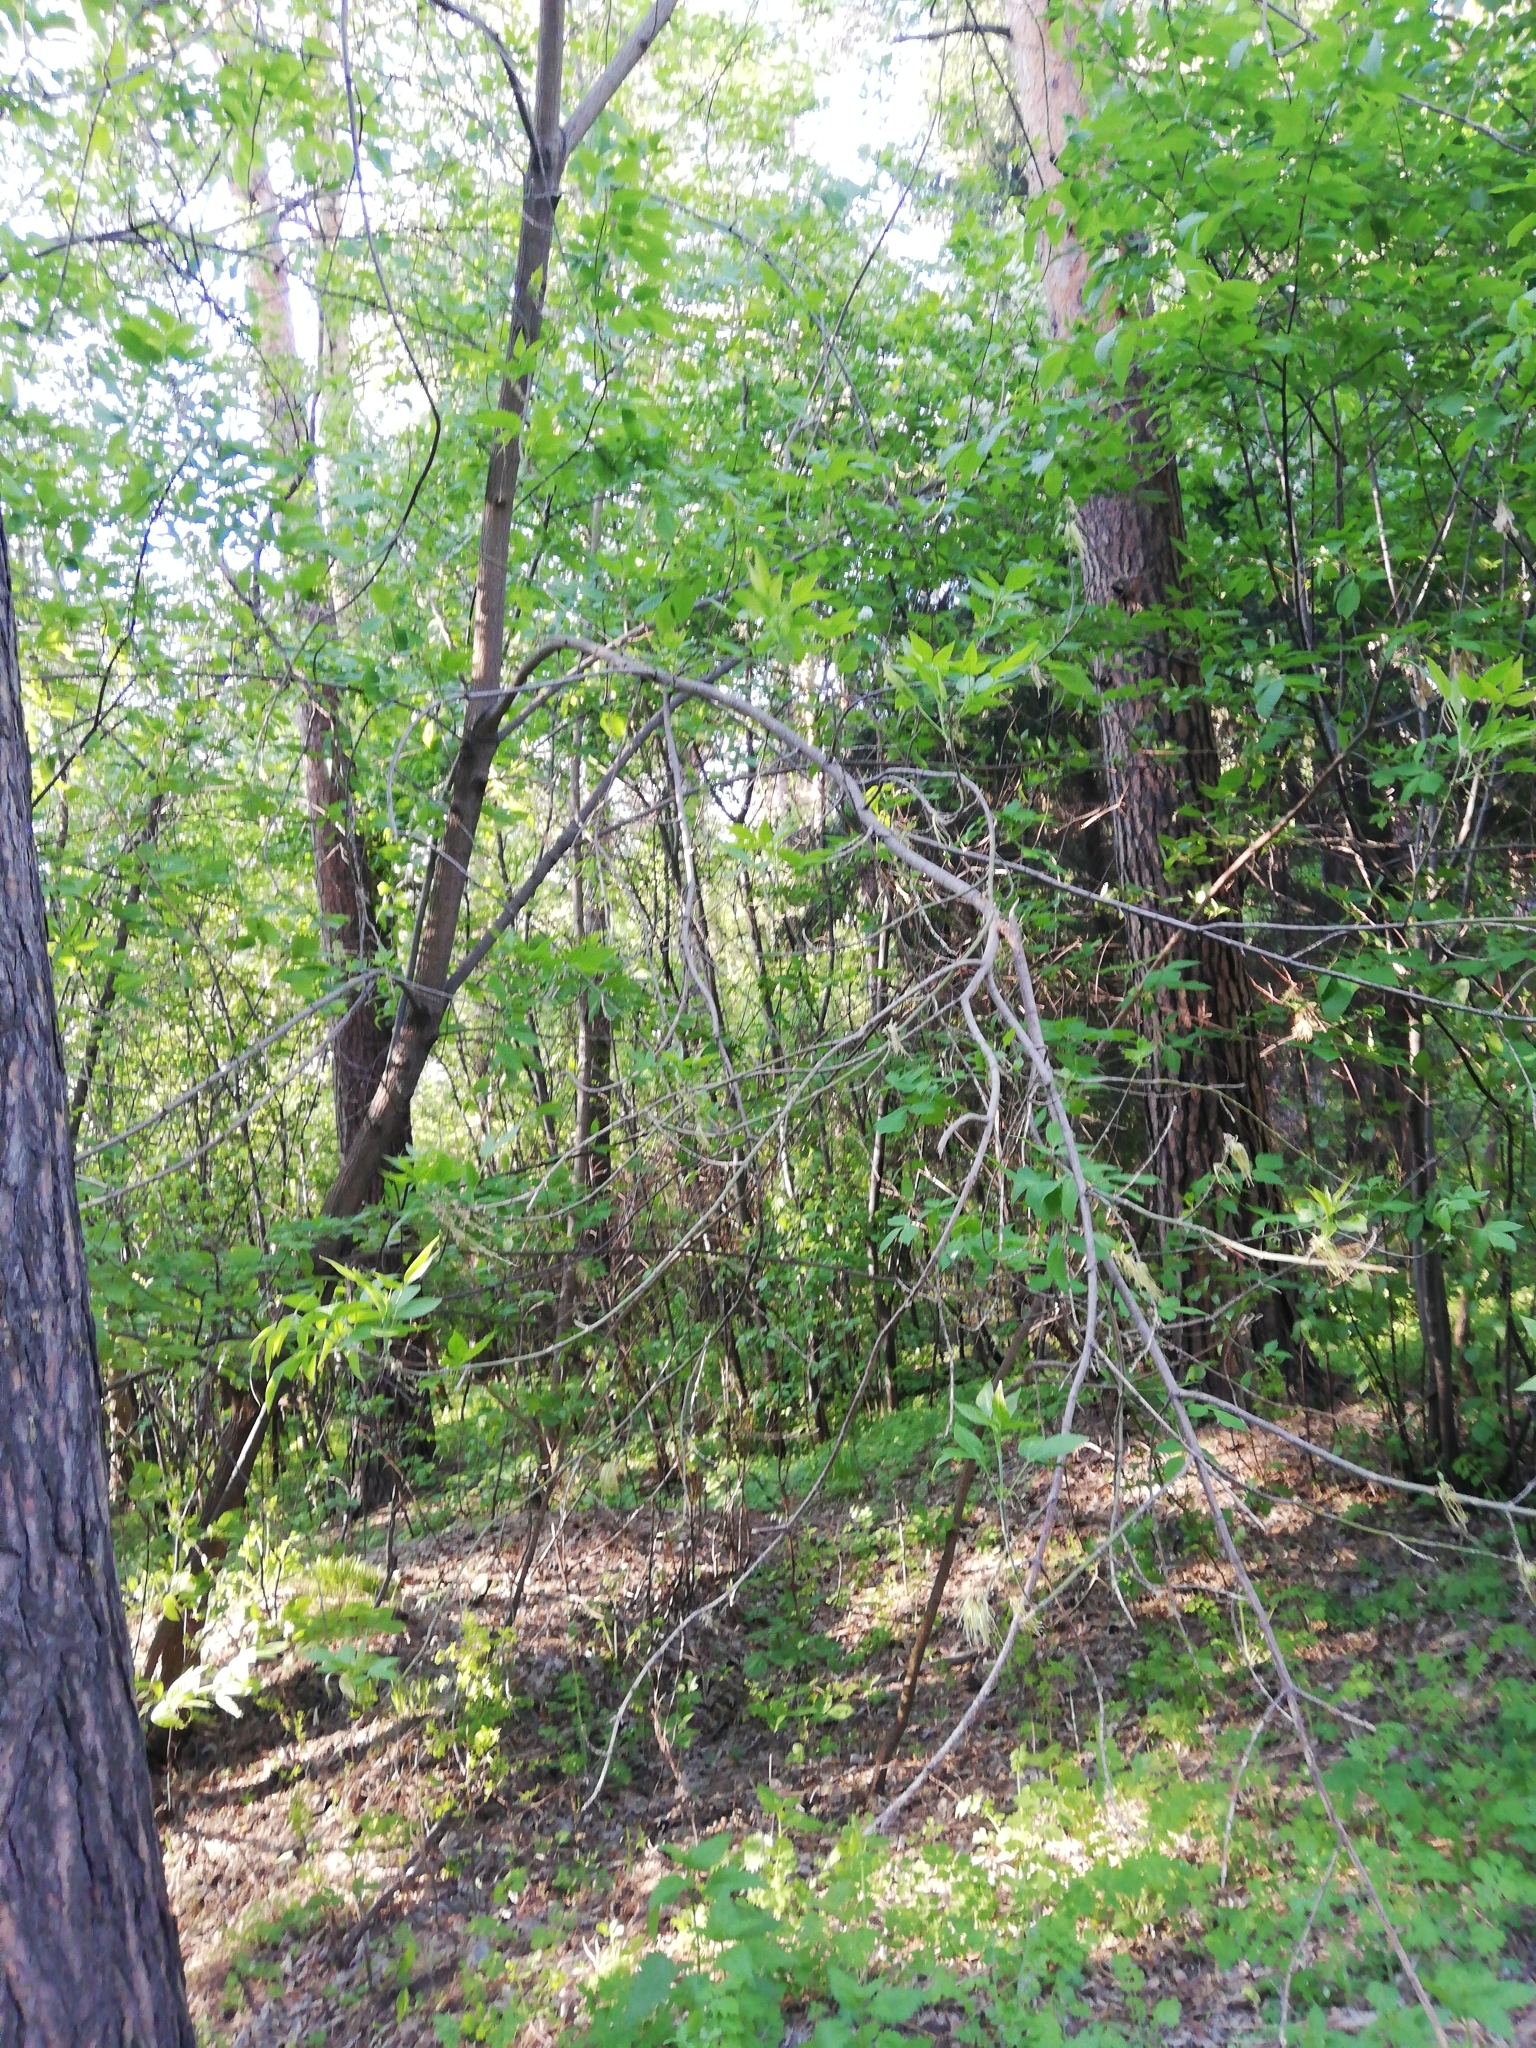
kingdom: Plantae
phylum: Tracheophyta
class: Magnoliopsida
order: Sapindales
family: Sapindaceae
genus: Acer
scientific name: Acer negundo
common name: Ashleaf maple
